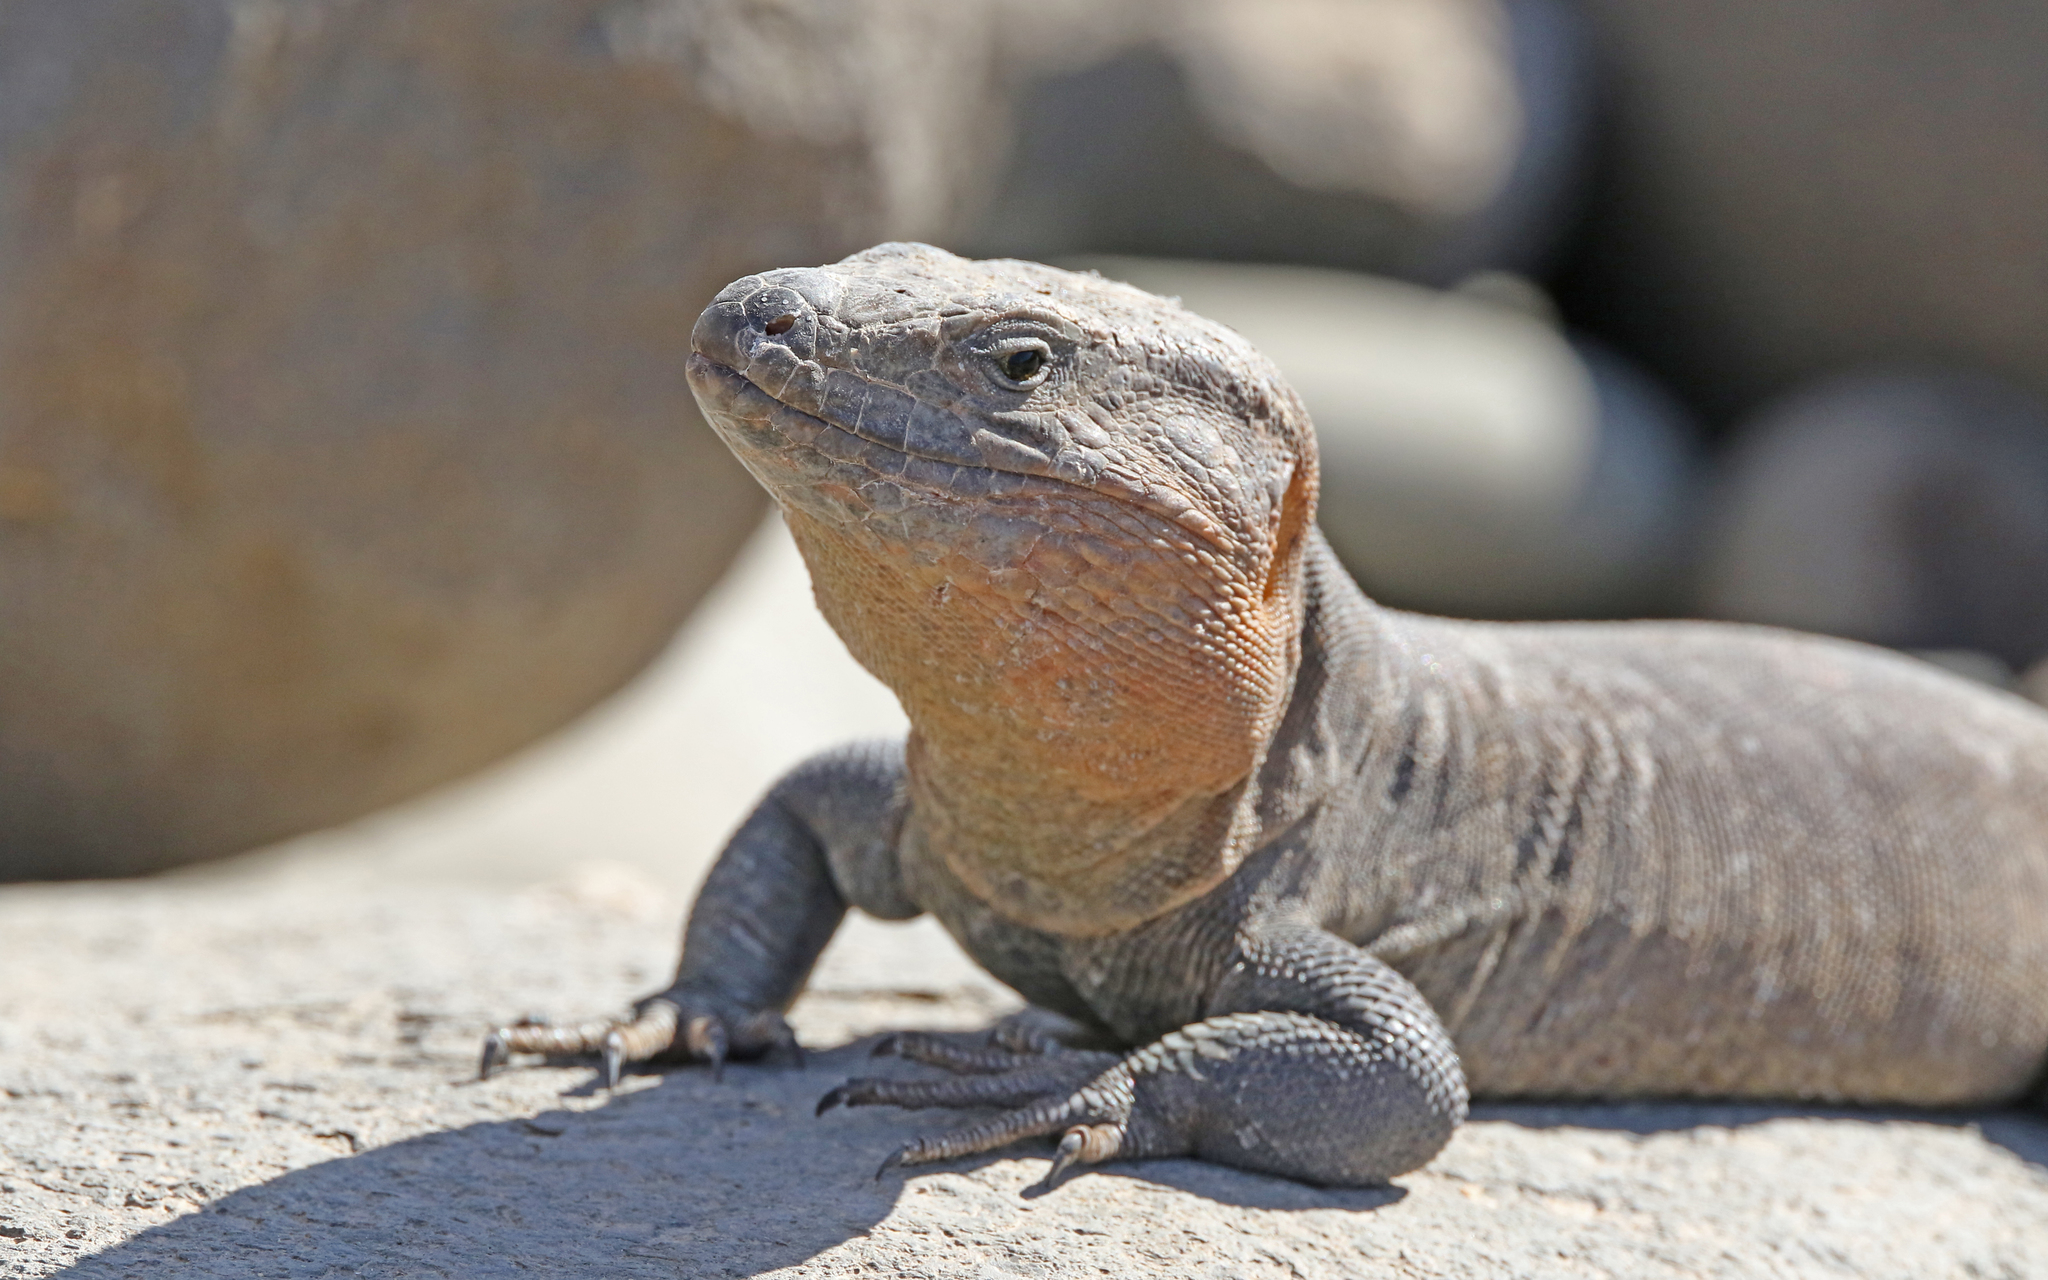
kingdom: Animalia
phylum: Chordata
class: Squamata
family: Lacertidae
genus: Gallotia
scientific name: Gallotia stehlini
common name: Gran canaria giant lizard
